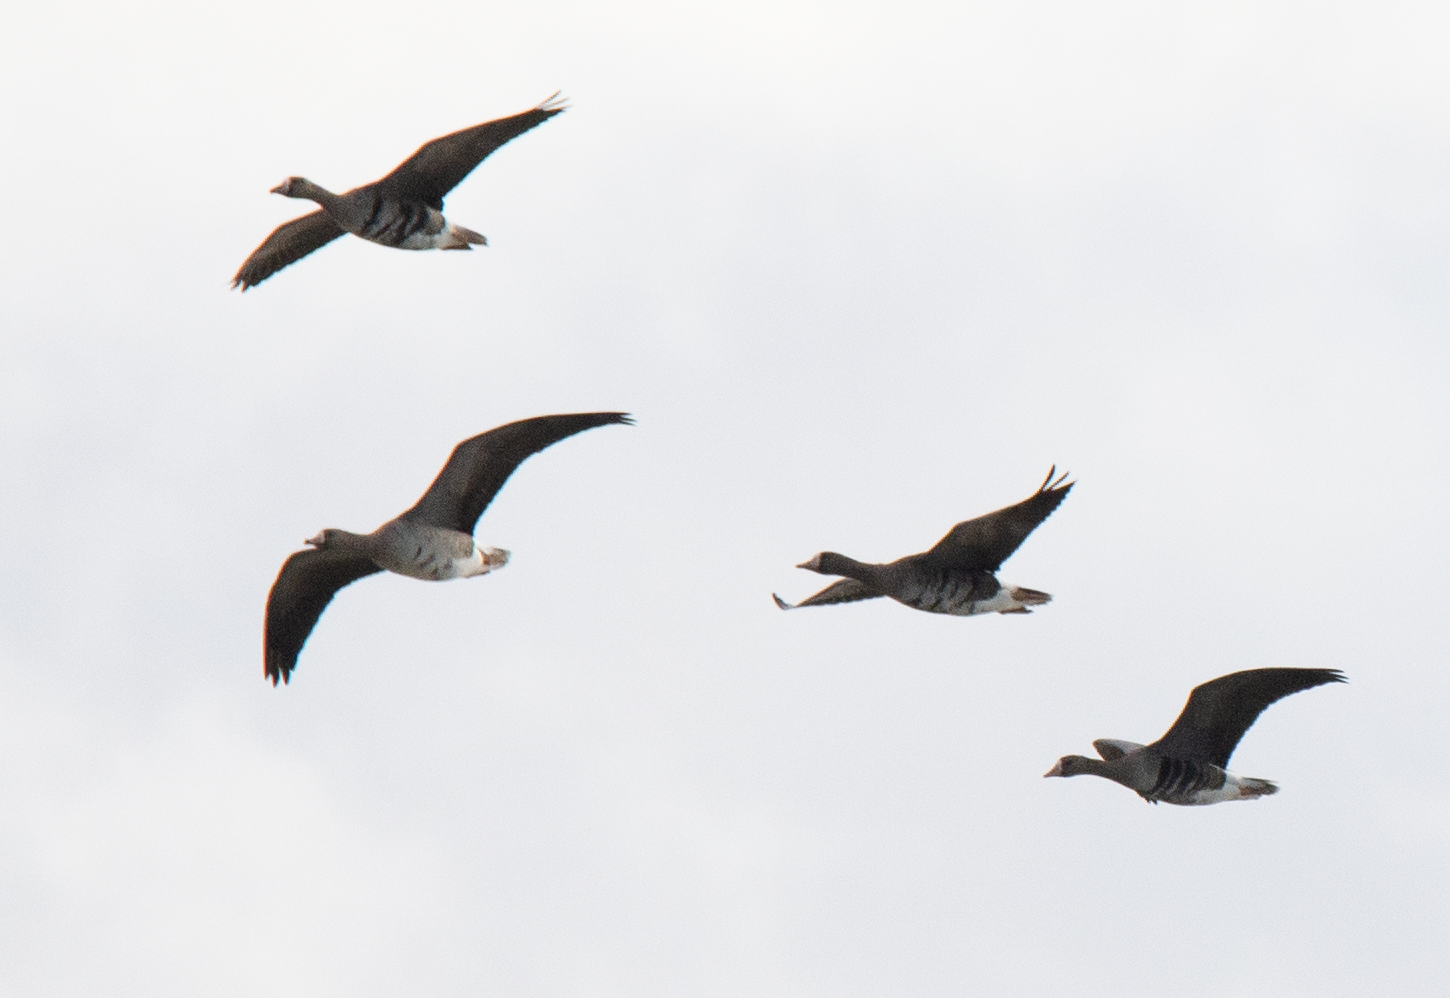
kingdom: Animalia
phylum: Chordata
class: Aves
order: Anseriformes
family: Anatidae
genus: Anser
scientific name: Anser albifrons
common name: Greater white-fronted goose
